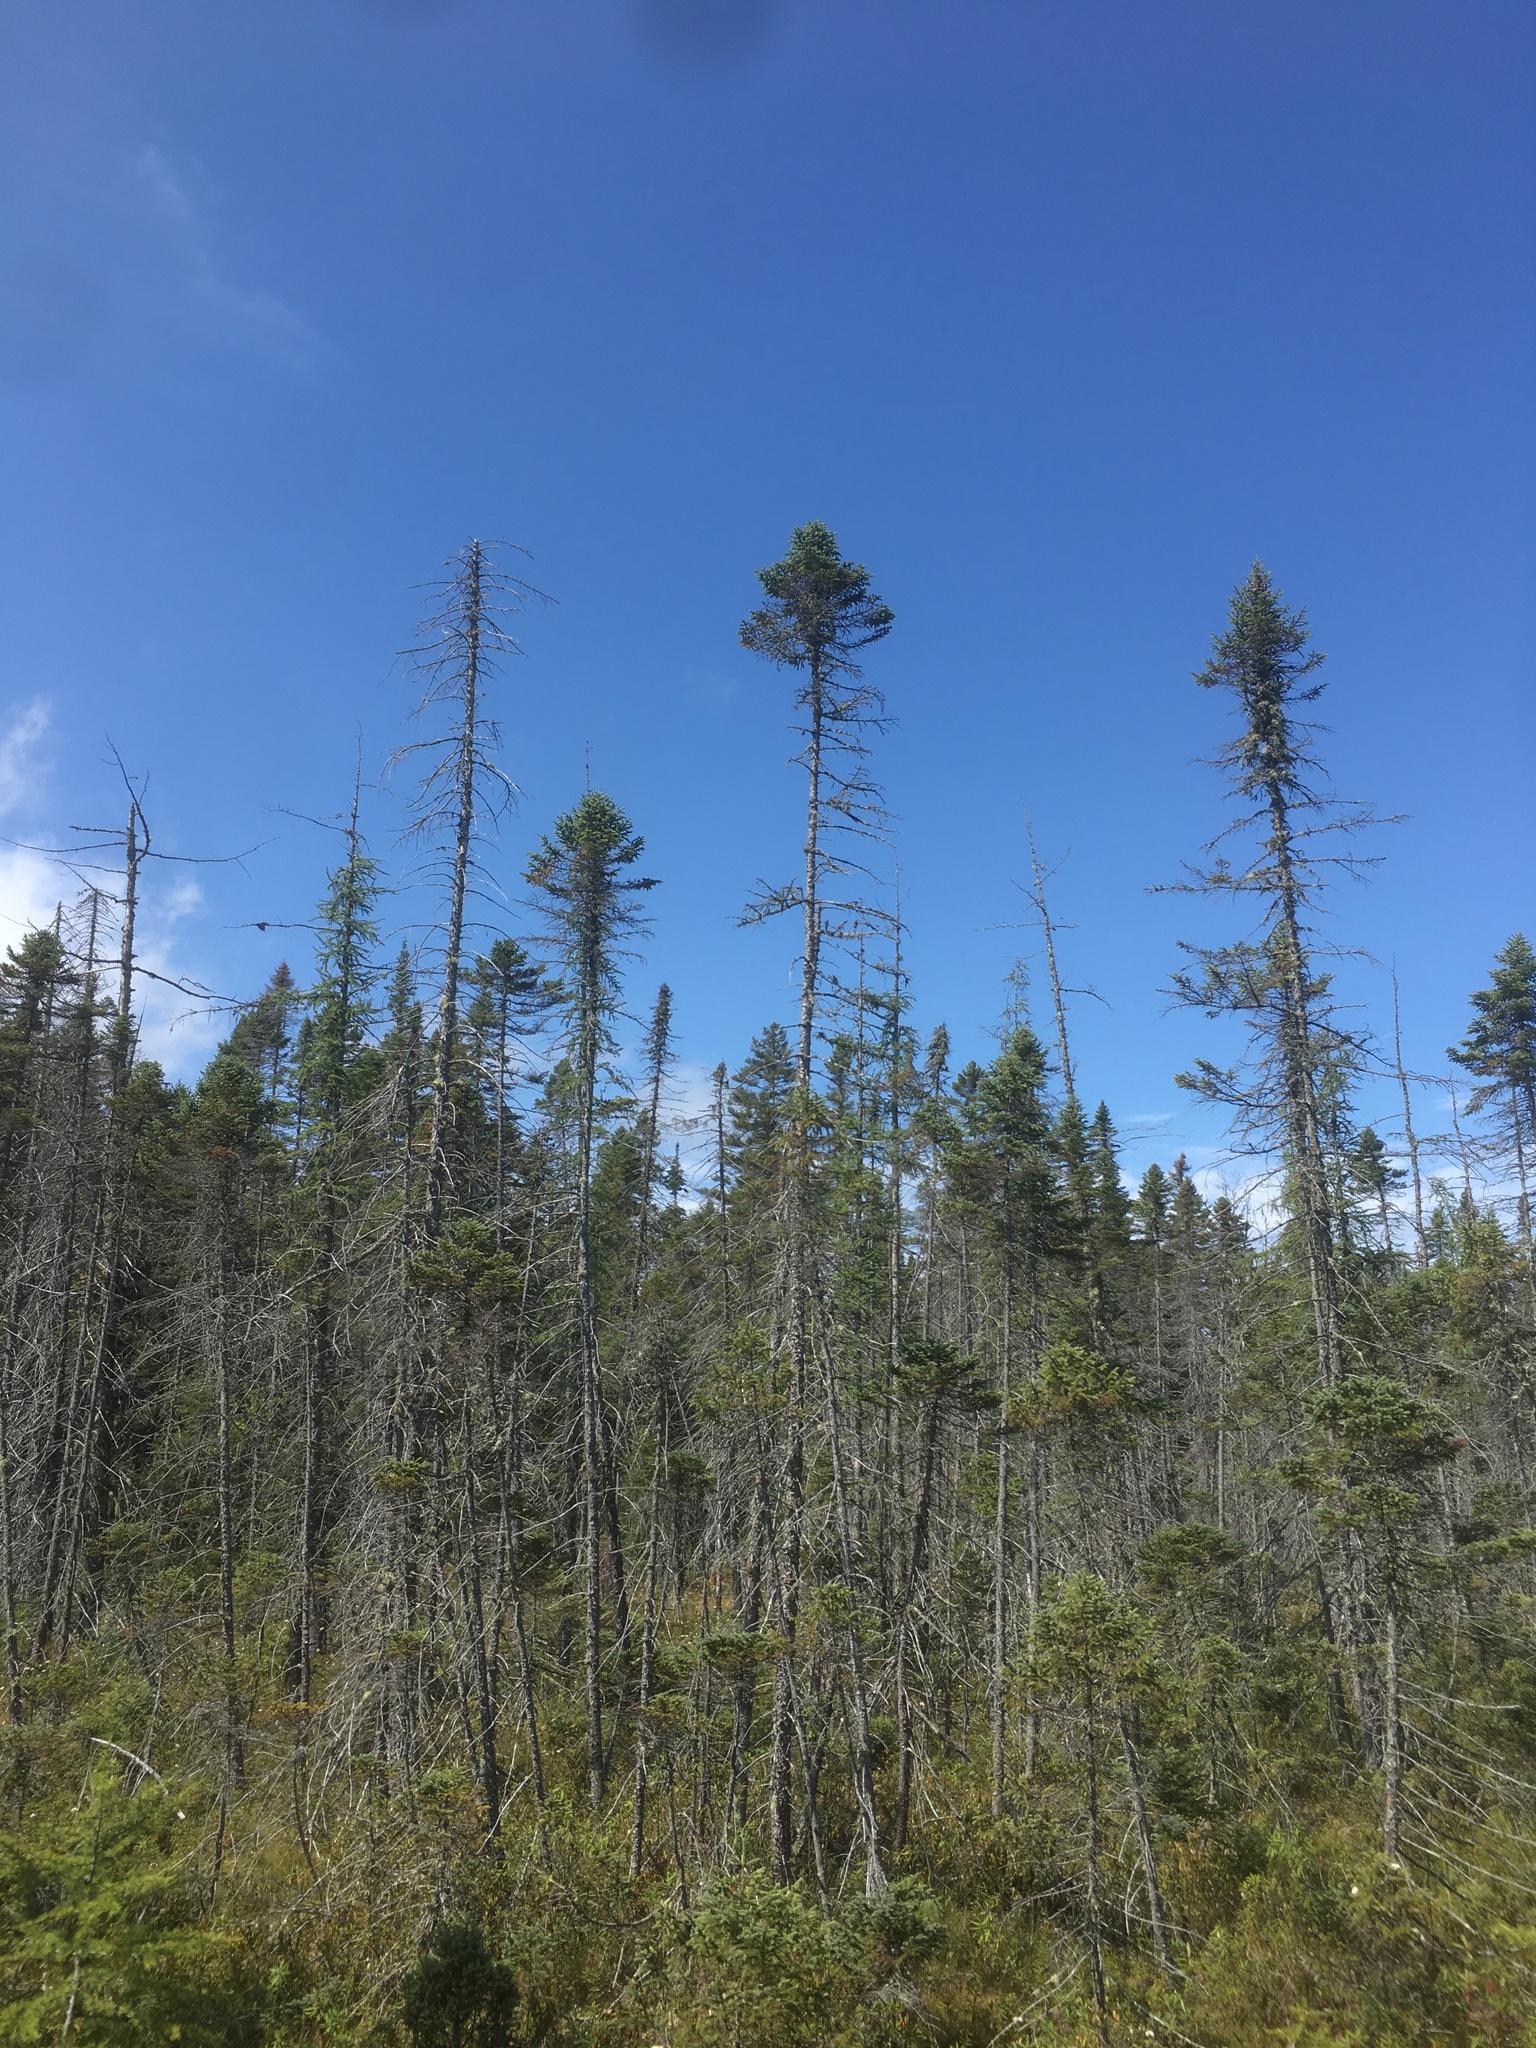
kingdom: Plantae
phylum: Tracheophyta
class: Pinopsida
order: Pinales
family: Pinaceae
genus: Picea
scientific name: Picea mariana
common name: Black spruce
